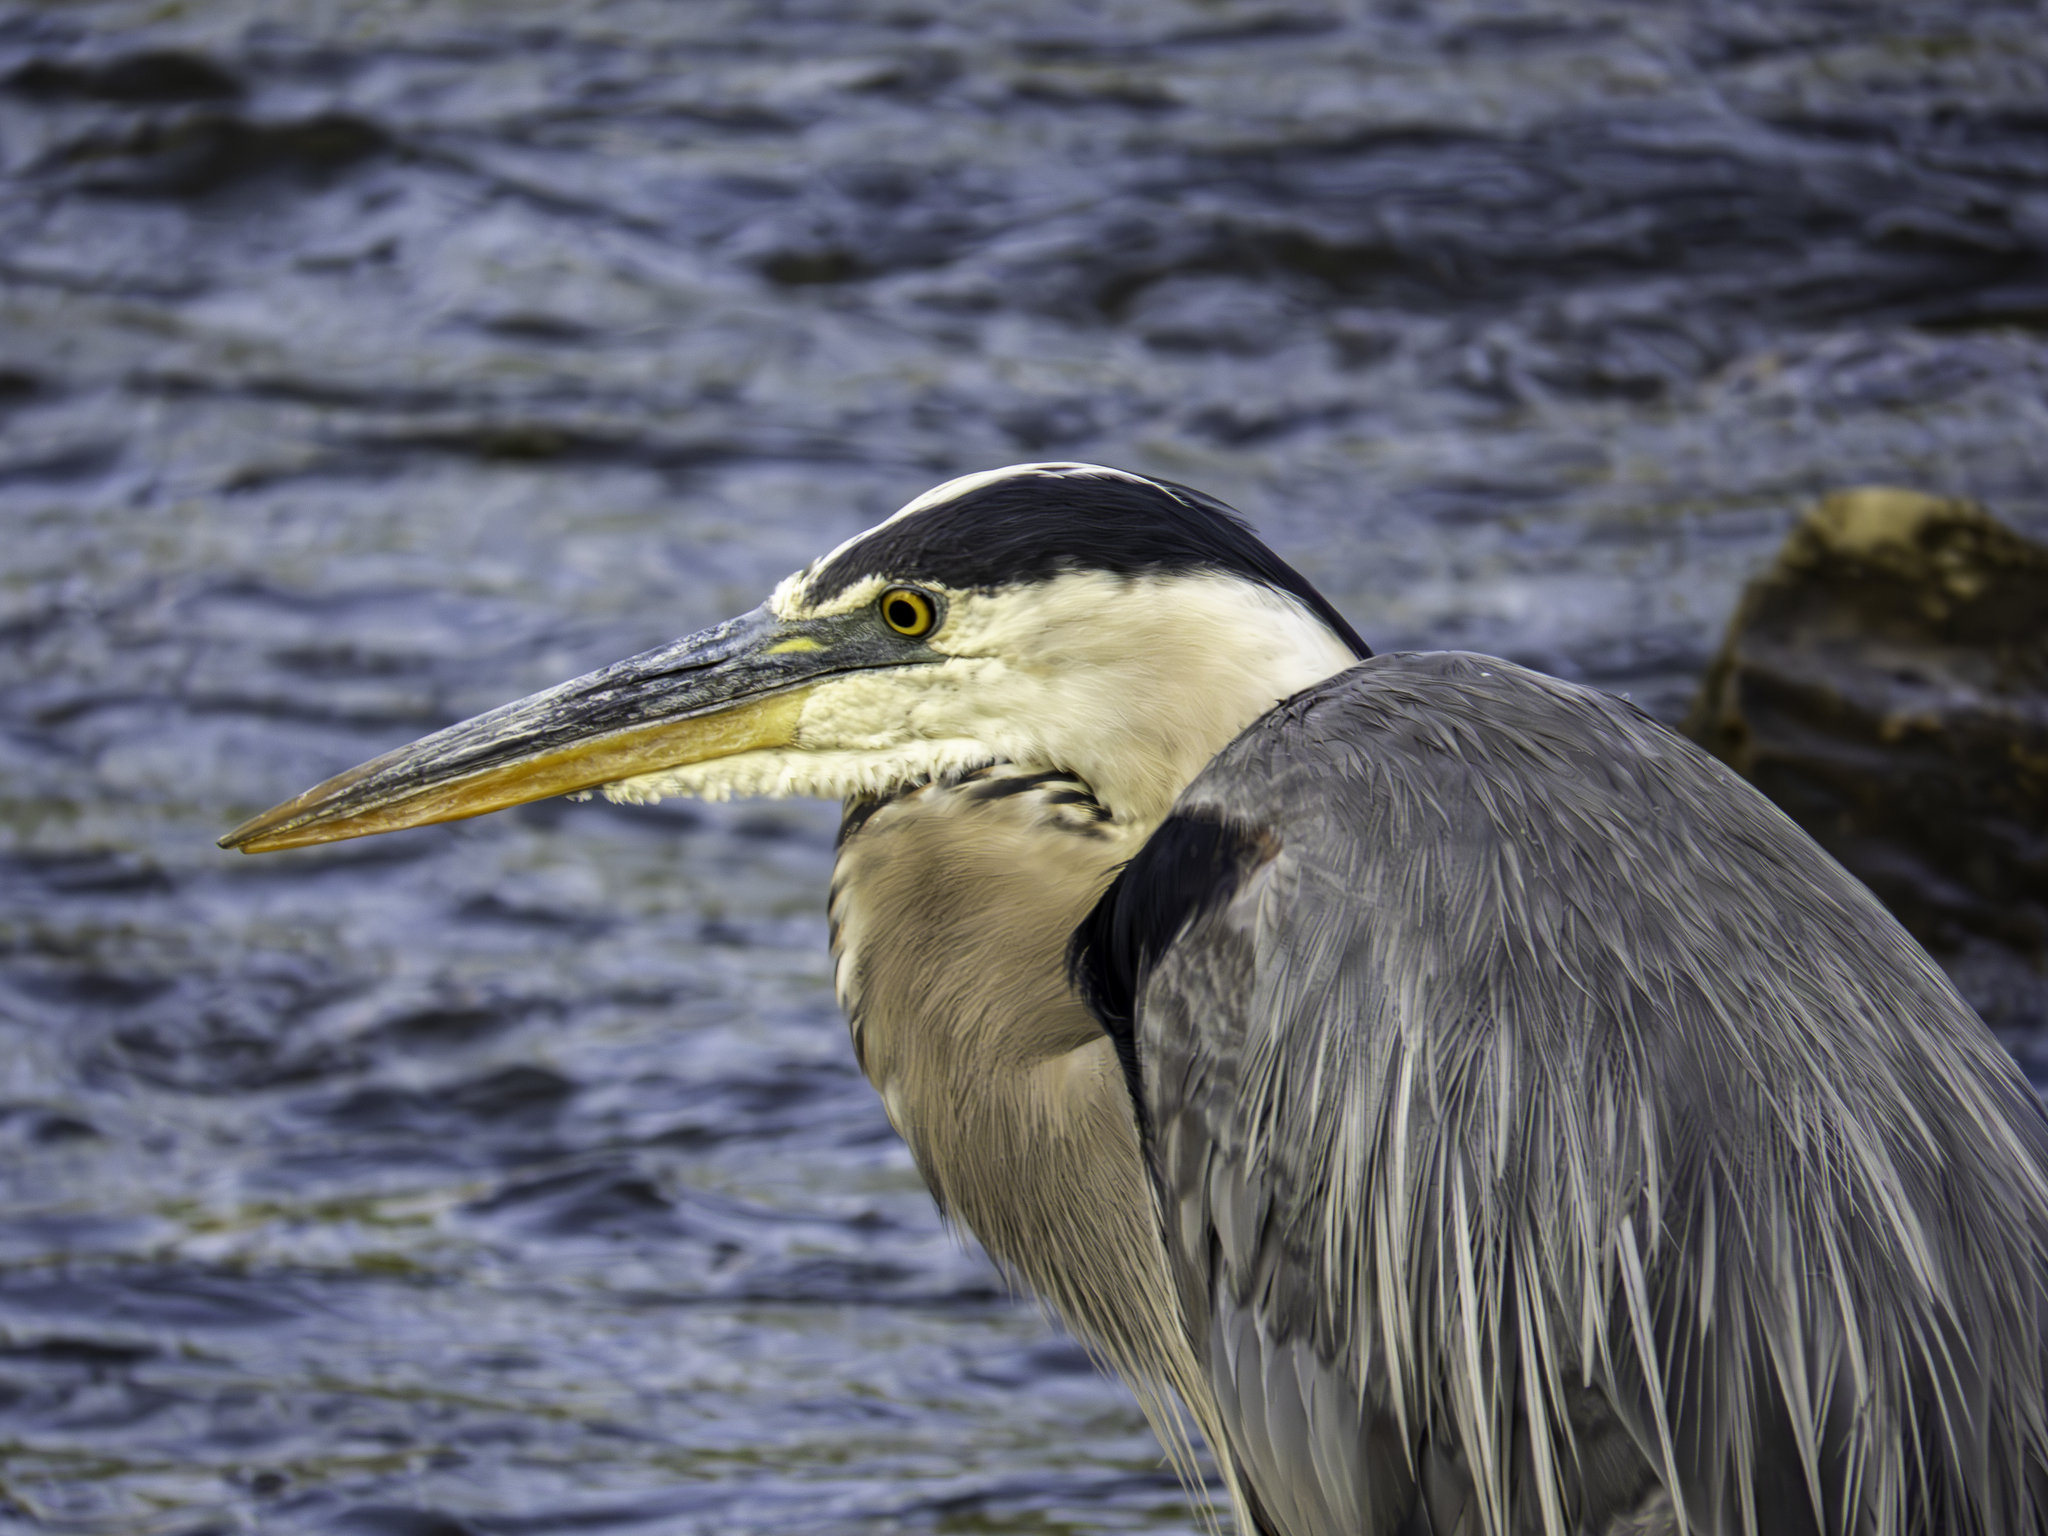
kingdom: Animalia
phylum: Chordata
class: Aves
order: Pelecaniformes
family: Ardeidae
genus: Ardea
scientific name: Ardea herodias
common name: Great blue heron
